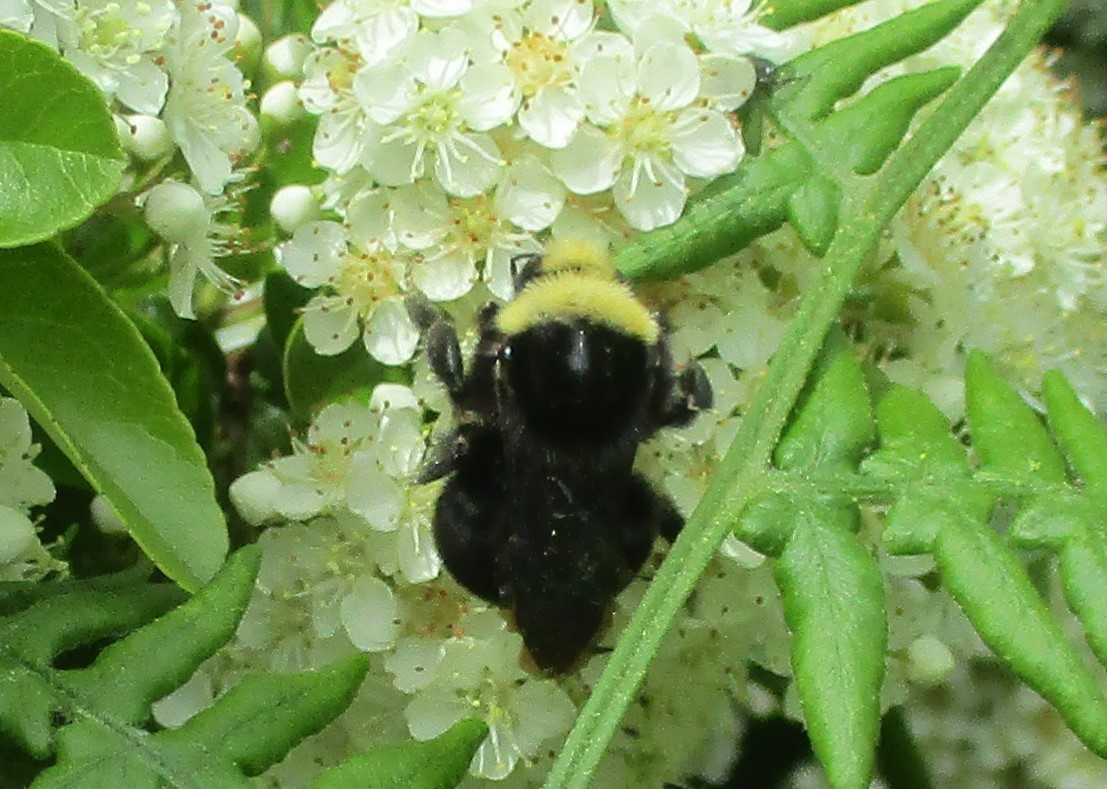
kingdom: Animalia
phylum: Arthropoda
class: Insecta
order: Hymenoptera
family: Apidae
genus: Bombus
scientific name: Bombus vosnesenskii
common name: Vosnesensky bumble bee
